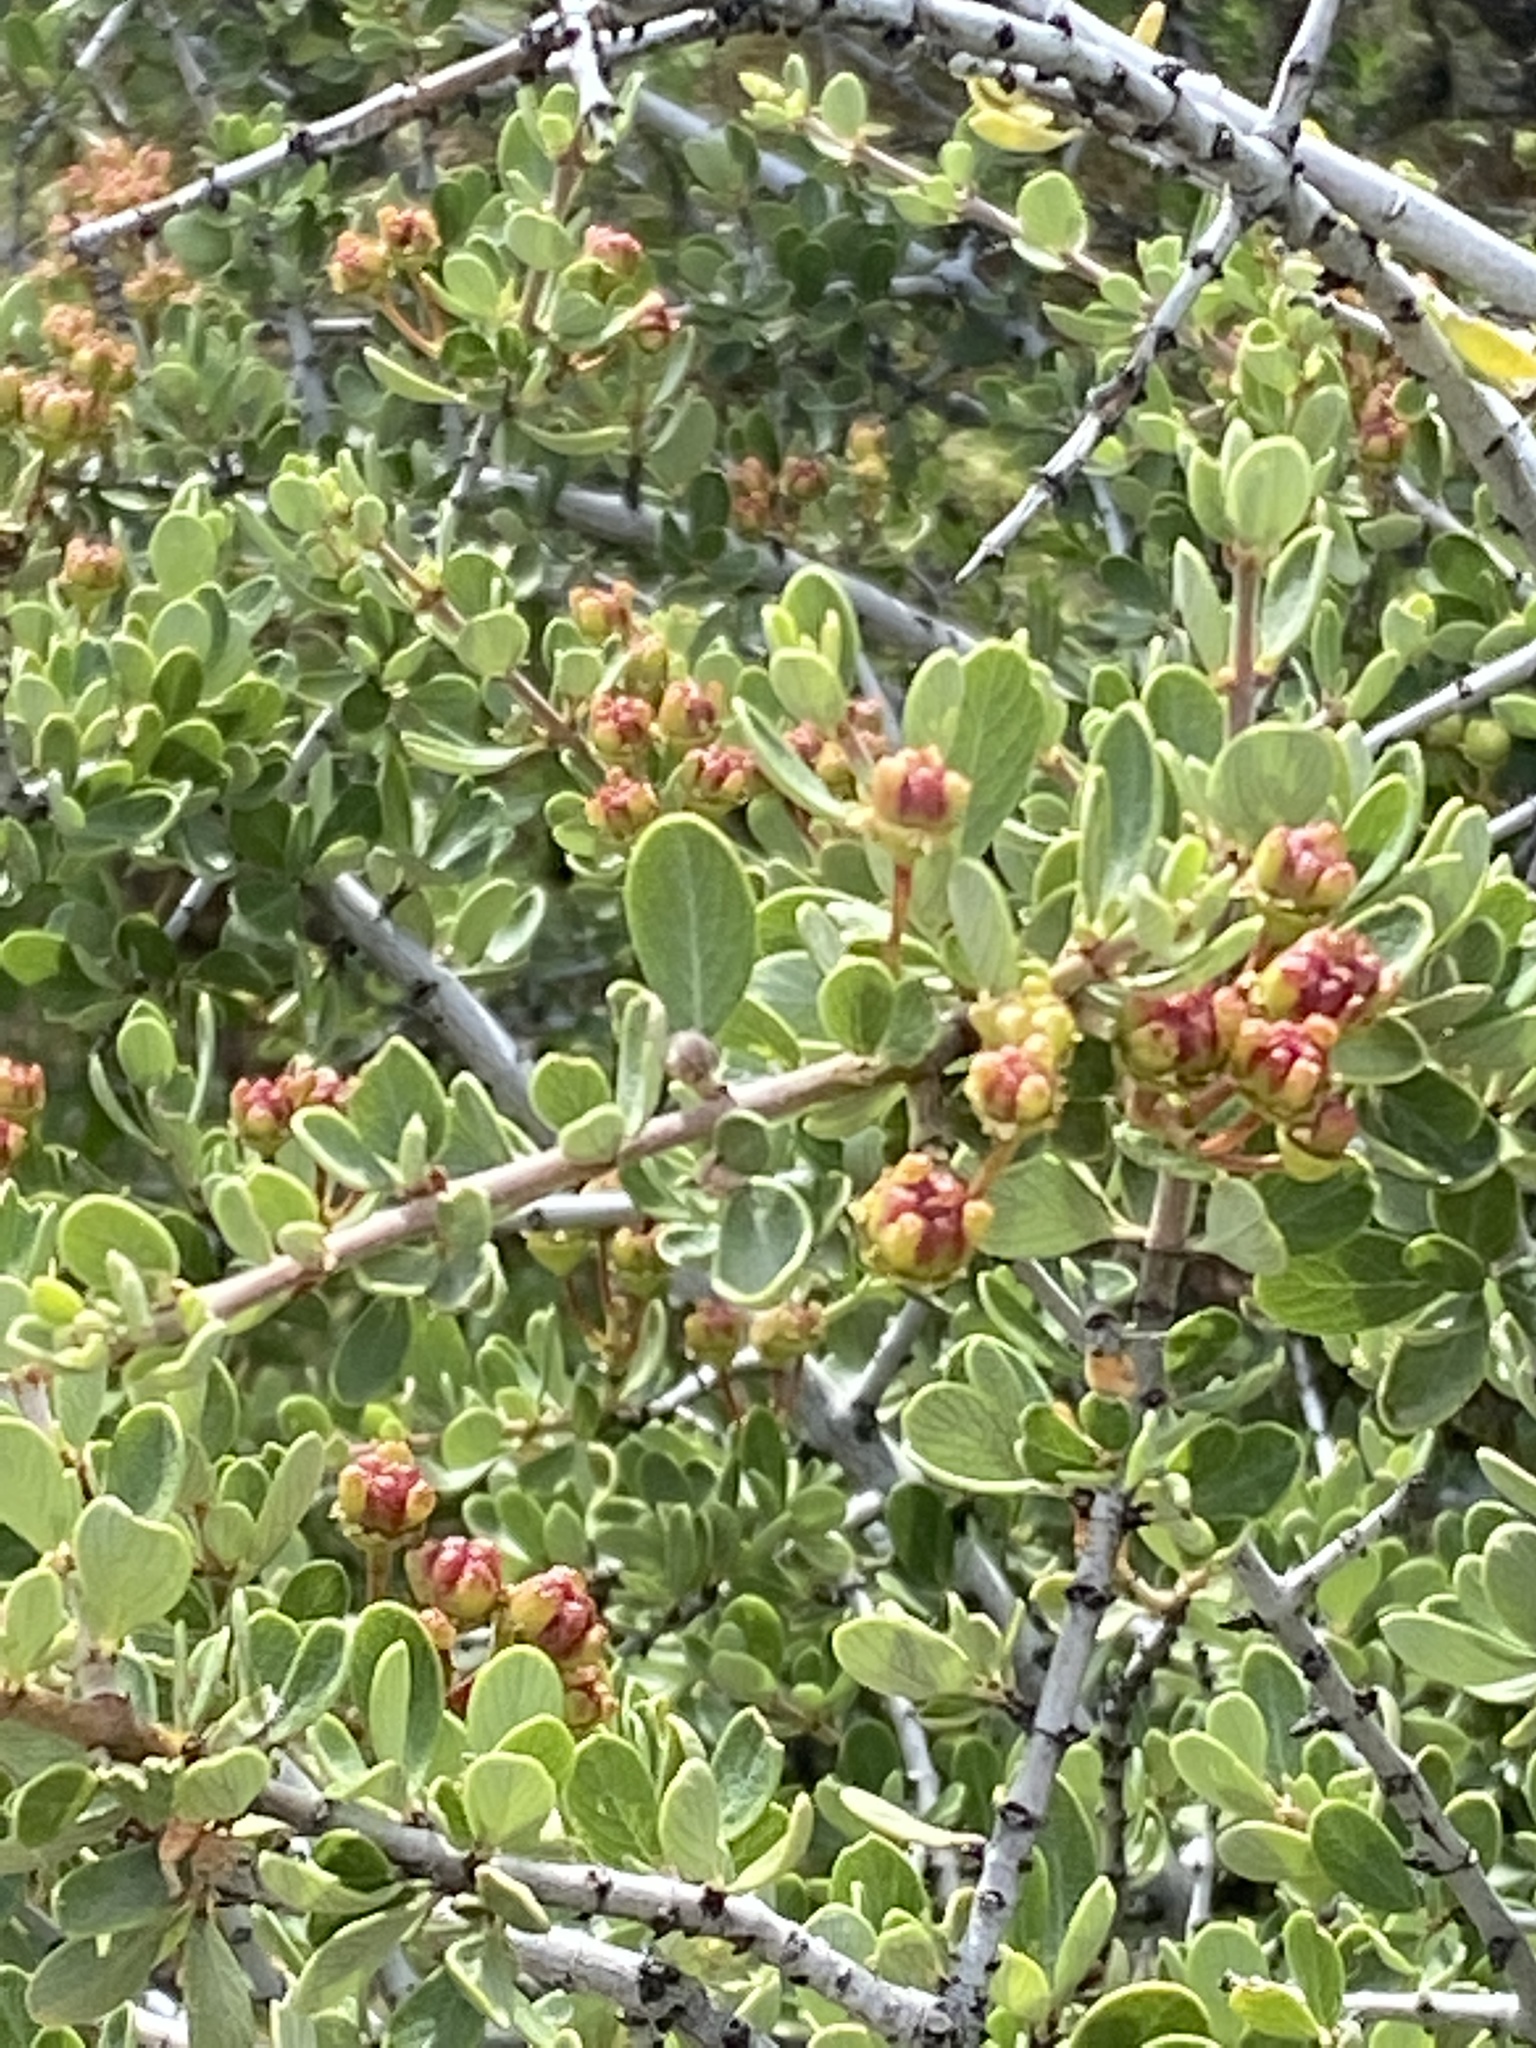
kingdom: Plantae
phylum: Tracheophyta
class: Magnoliopsida
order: Rosales
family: Rhamnaceae
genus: Ceanothus
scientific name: Ceanothus cuneatus
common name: Cuneate ceanothus
